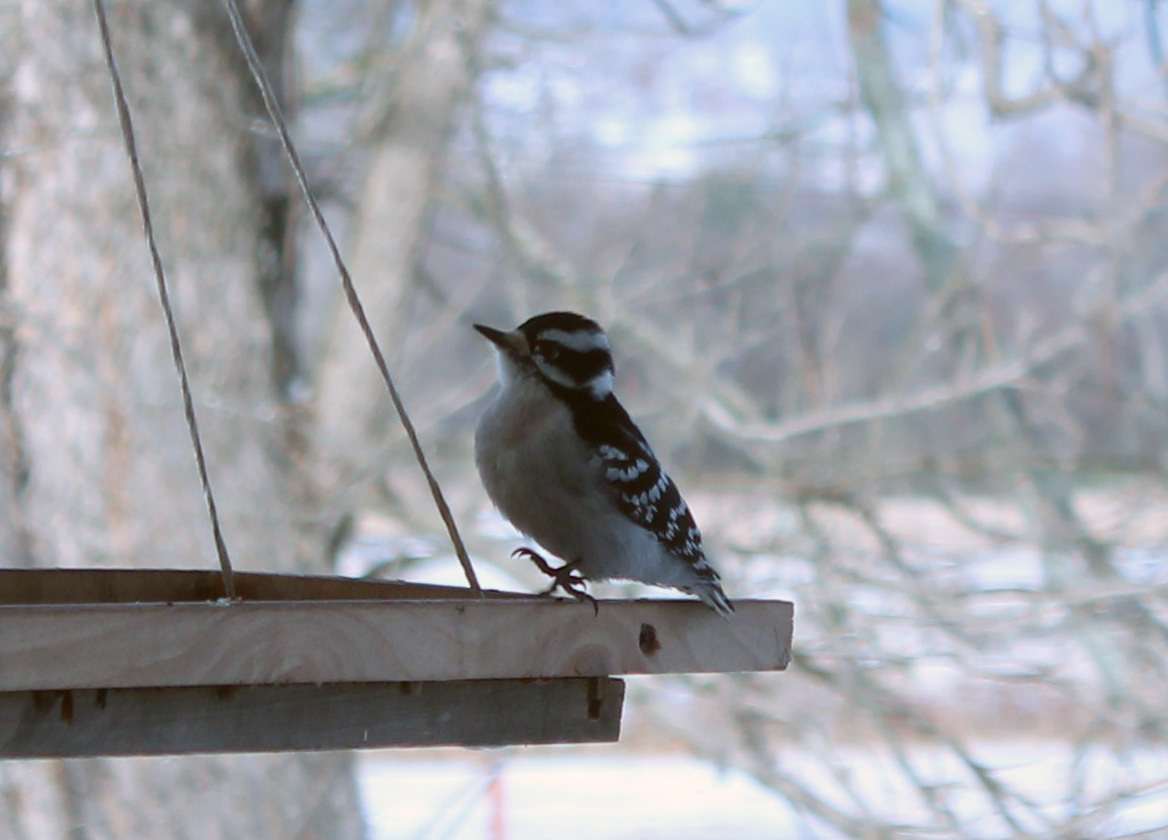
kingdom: Animalia
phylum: Chordata
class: Aves
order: Piciformes
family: Picidae
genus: Dryobates
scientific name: Dryobates pubescens
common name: Downy woodpecker
